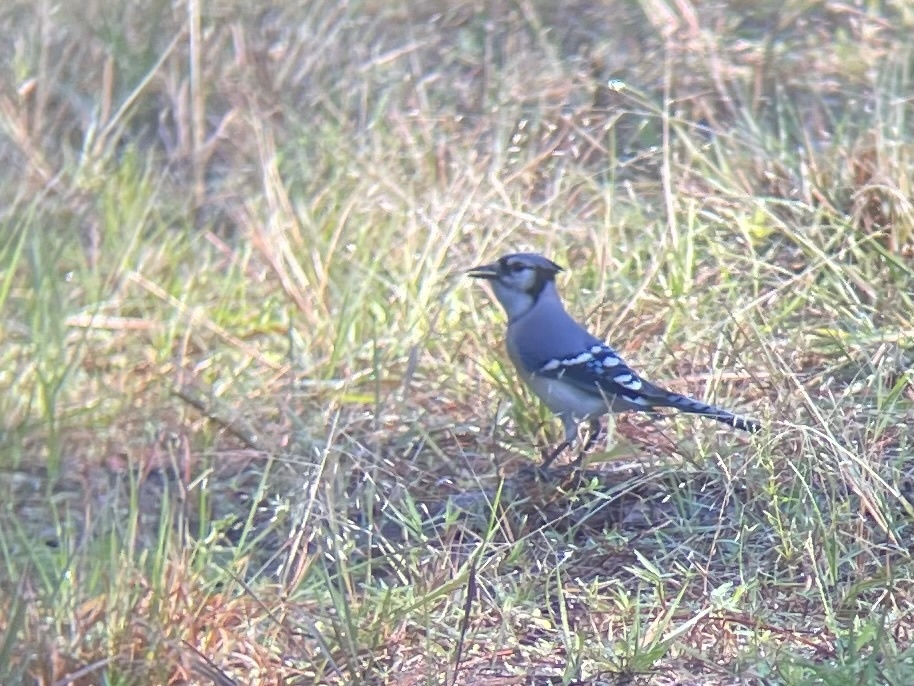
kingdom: Animalia
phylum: Chordata
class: Aves
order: Passeriformes
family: Corvidae
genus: Cyanocitta
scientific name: Cyanocitta cristata
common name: Blue jay
